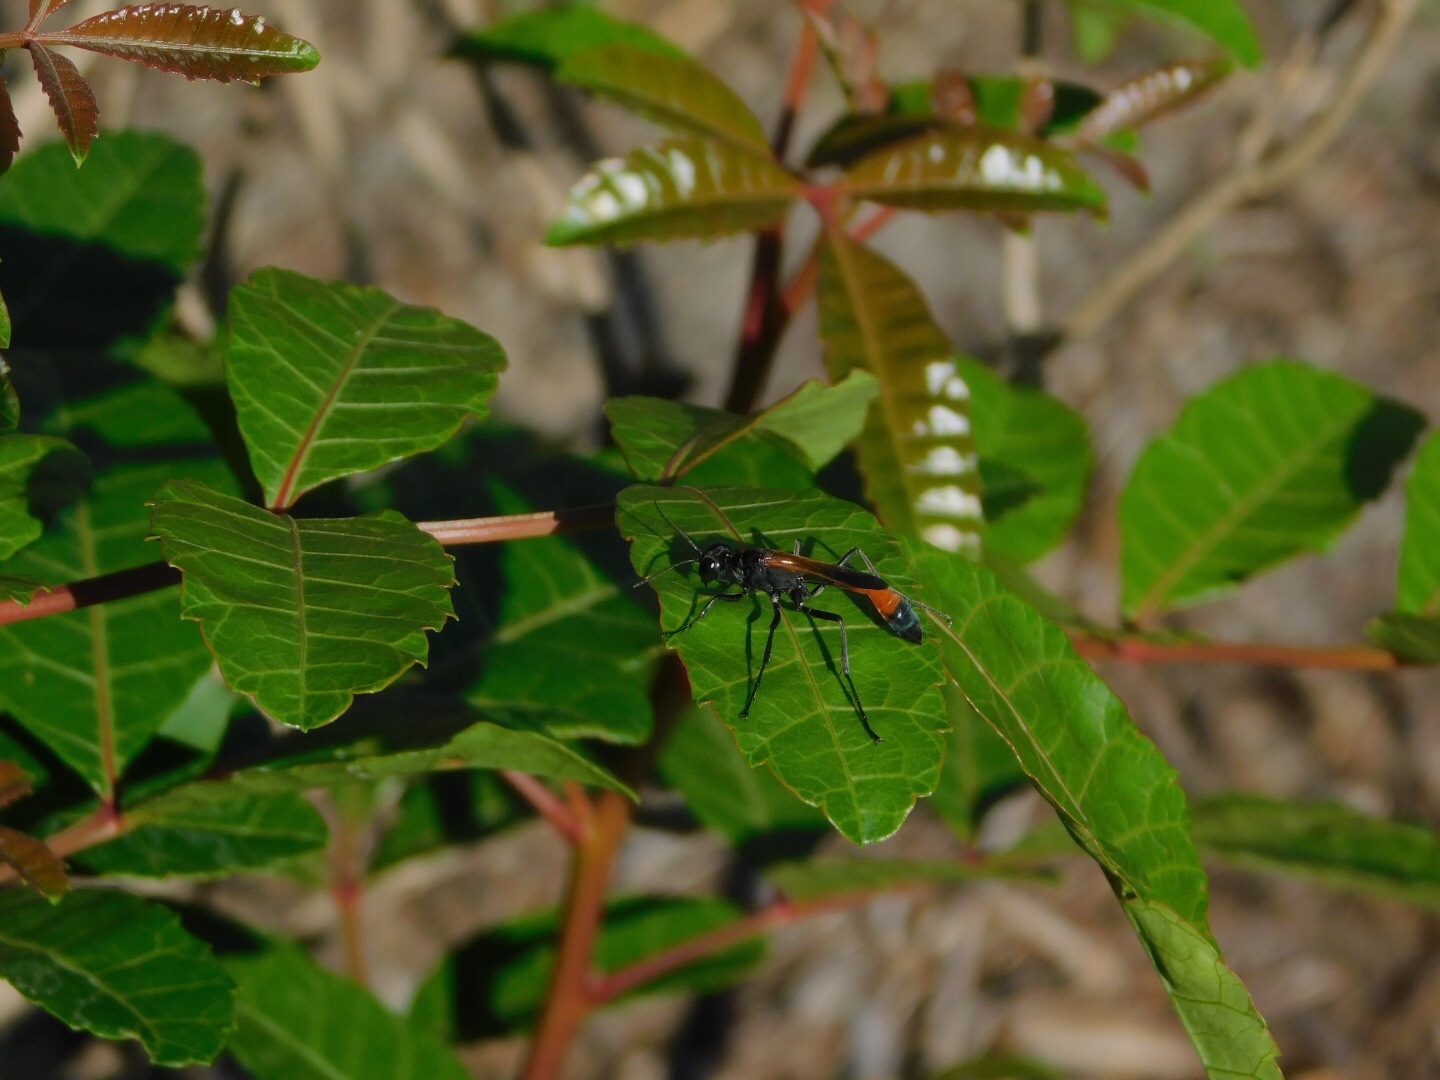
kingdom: Animalia
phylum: Arthropoda
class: Insecta
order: Hymenoptera
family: Sphecidae
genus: Ammophila
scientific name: Ammophila pictipennis
